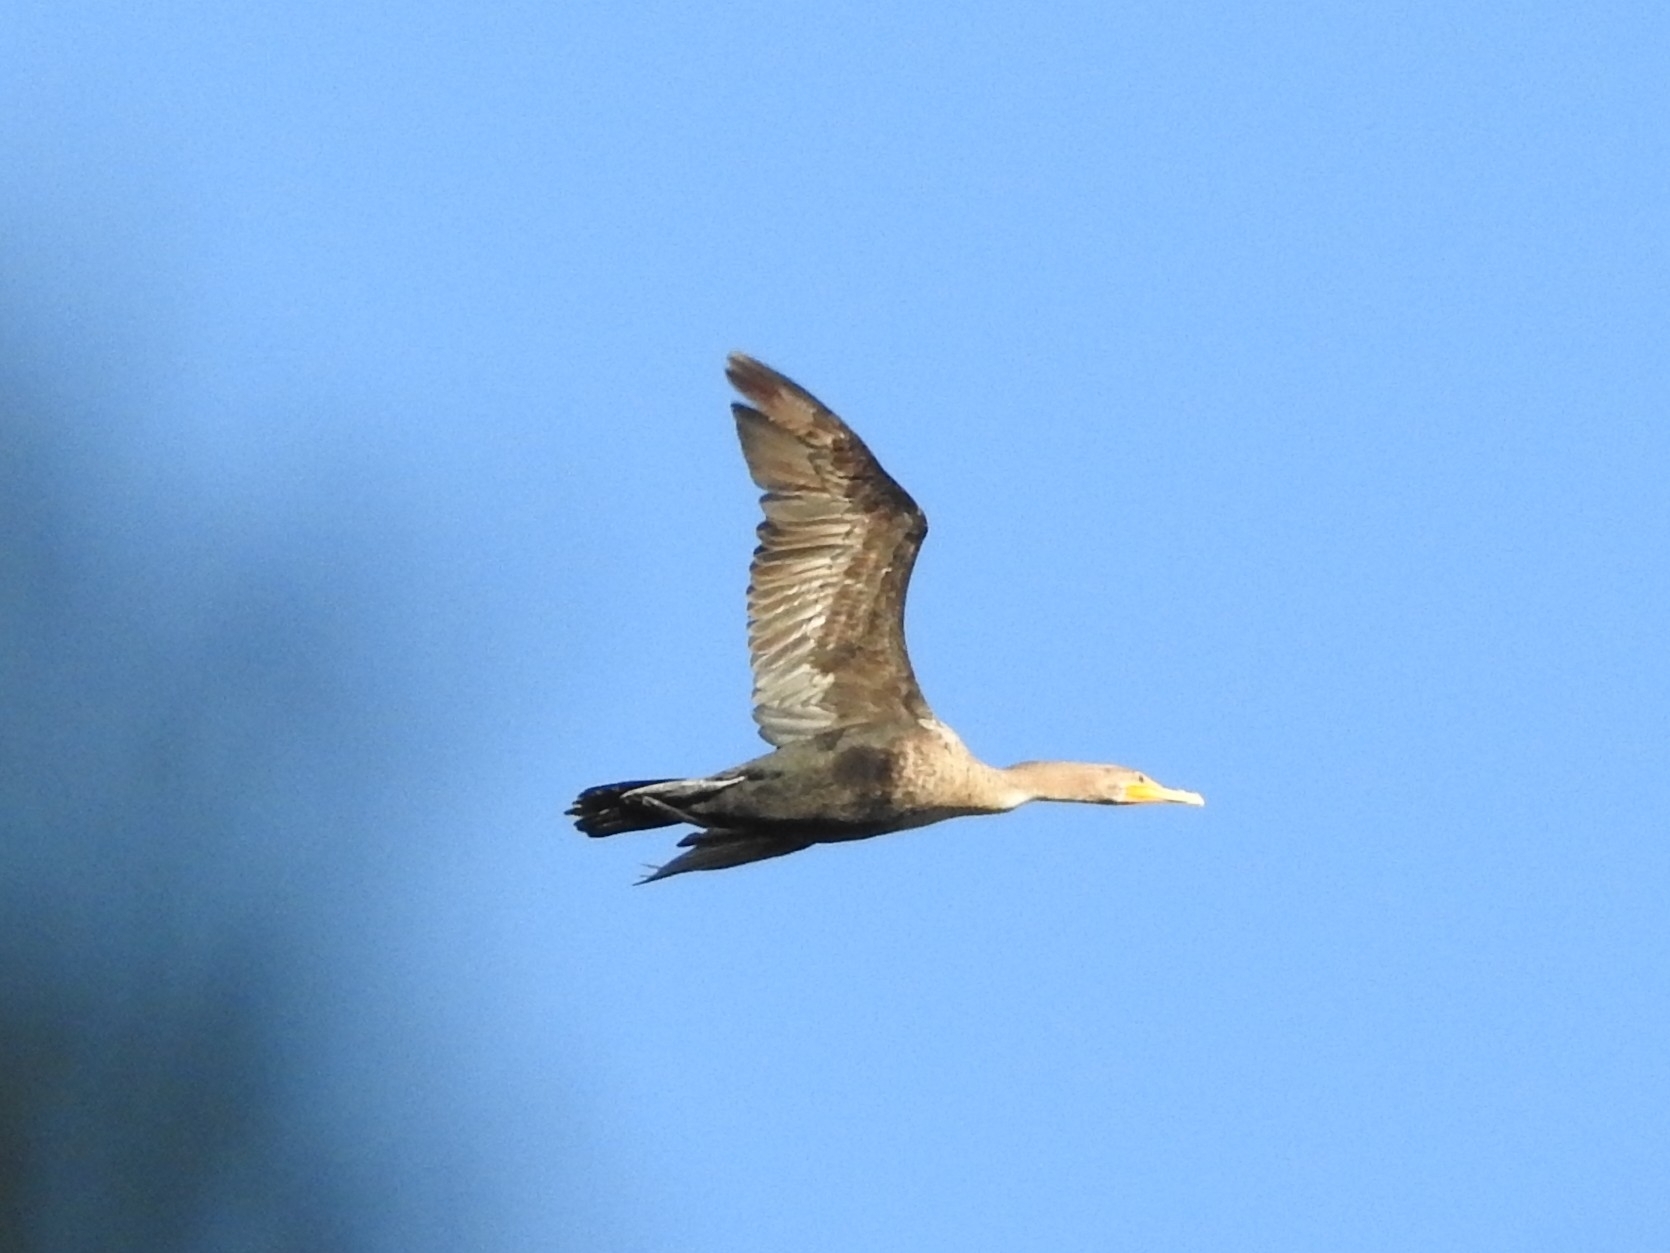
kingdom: Animalia
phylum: Chordata
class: Aves
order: Suliformes
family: Phalacrocoracidae
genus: Phalacrocorax
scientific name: Phalacrocorax auritus
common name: Double-crested cormorant
